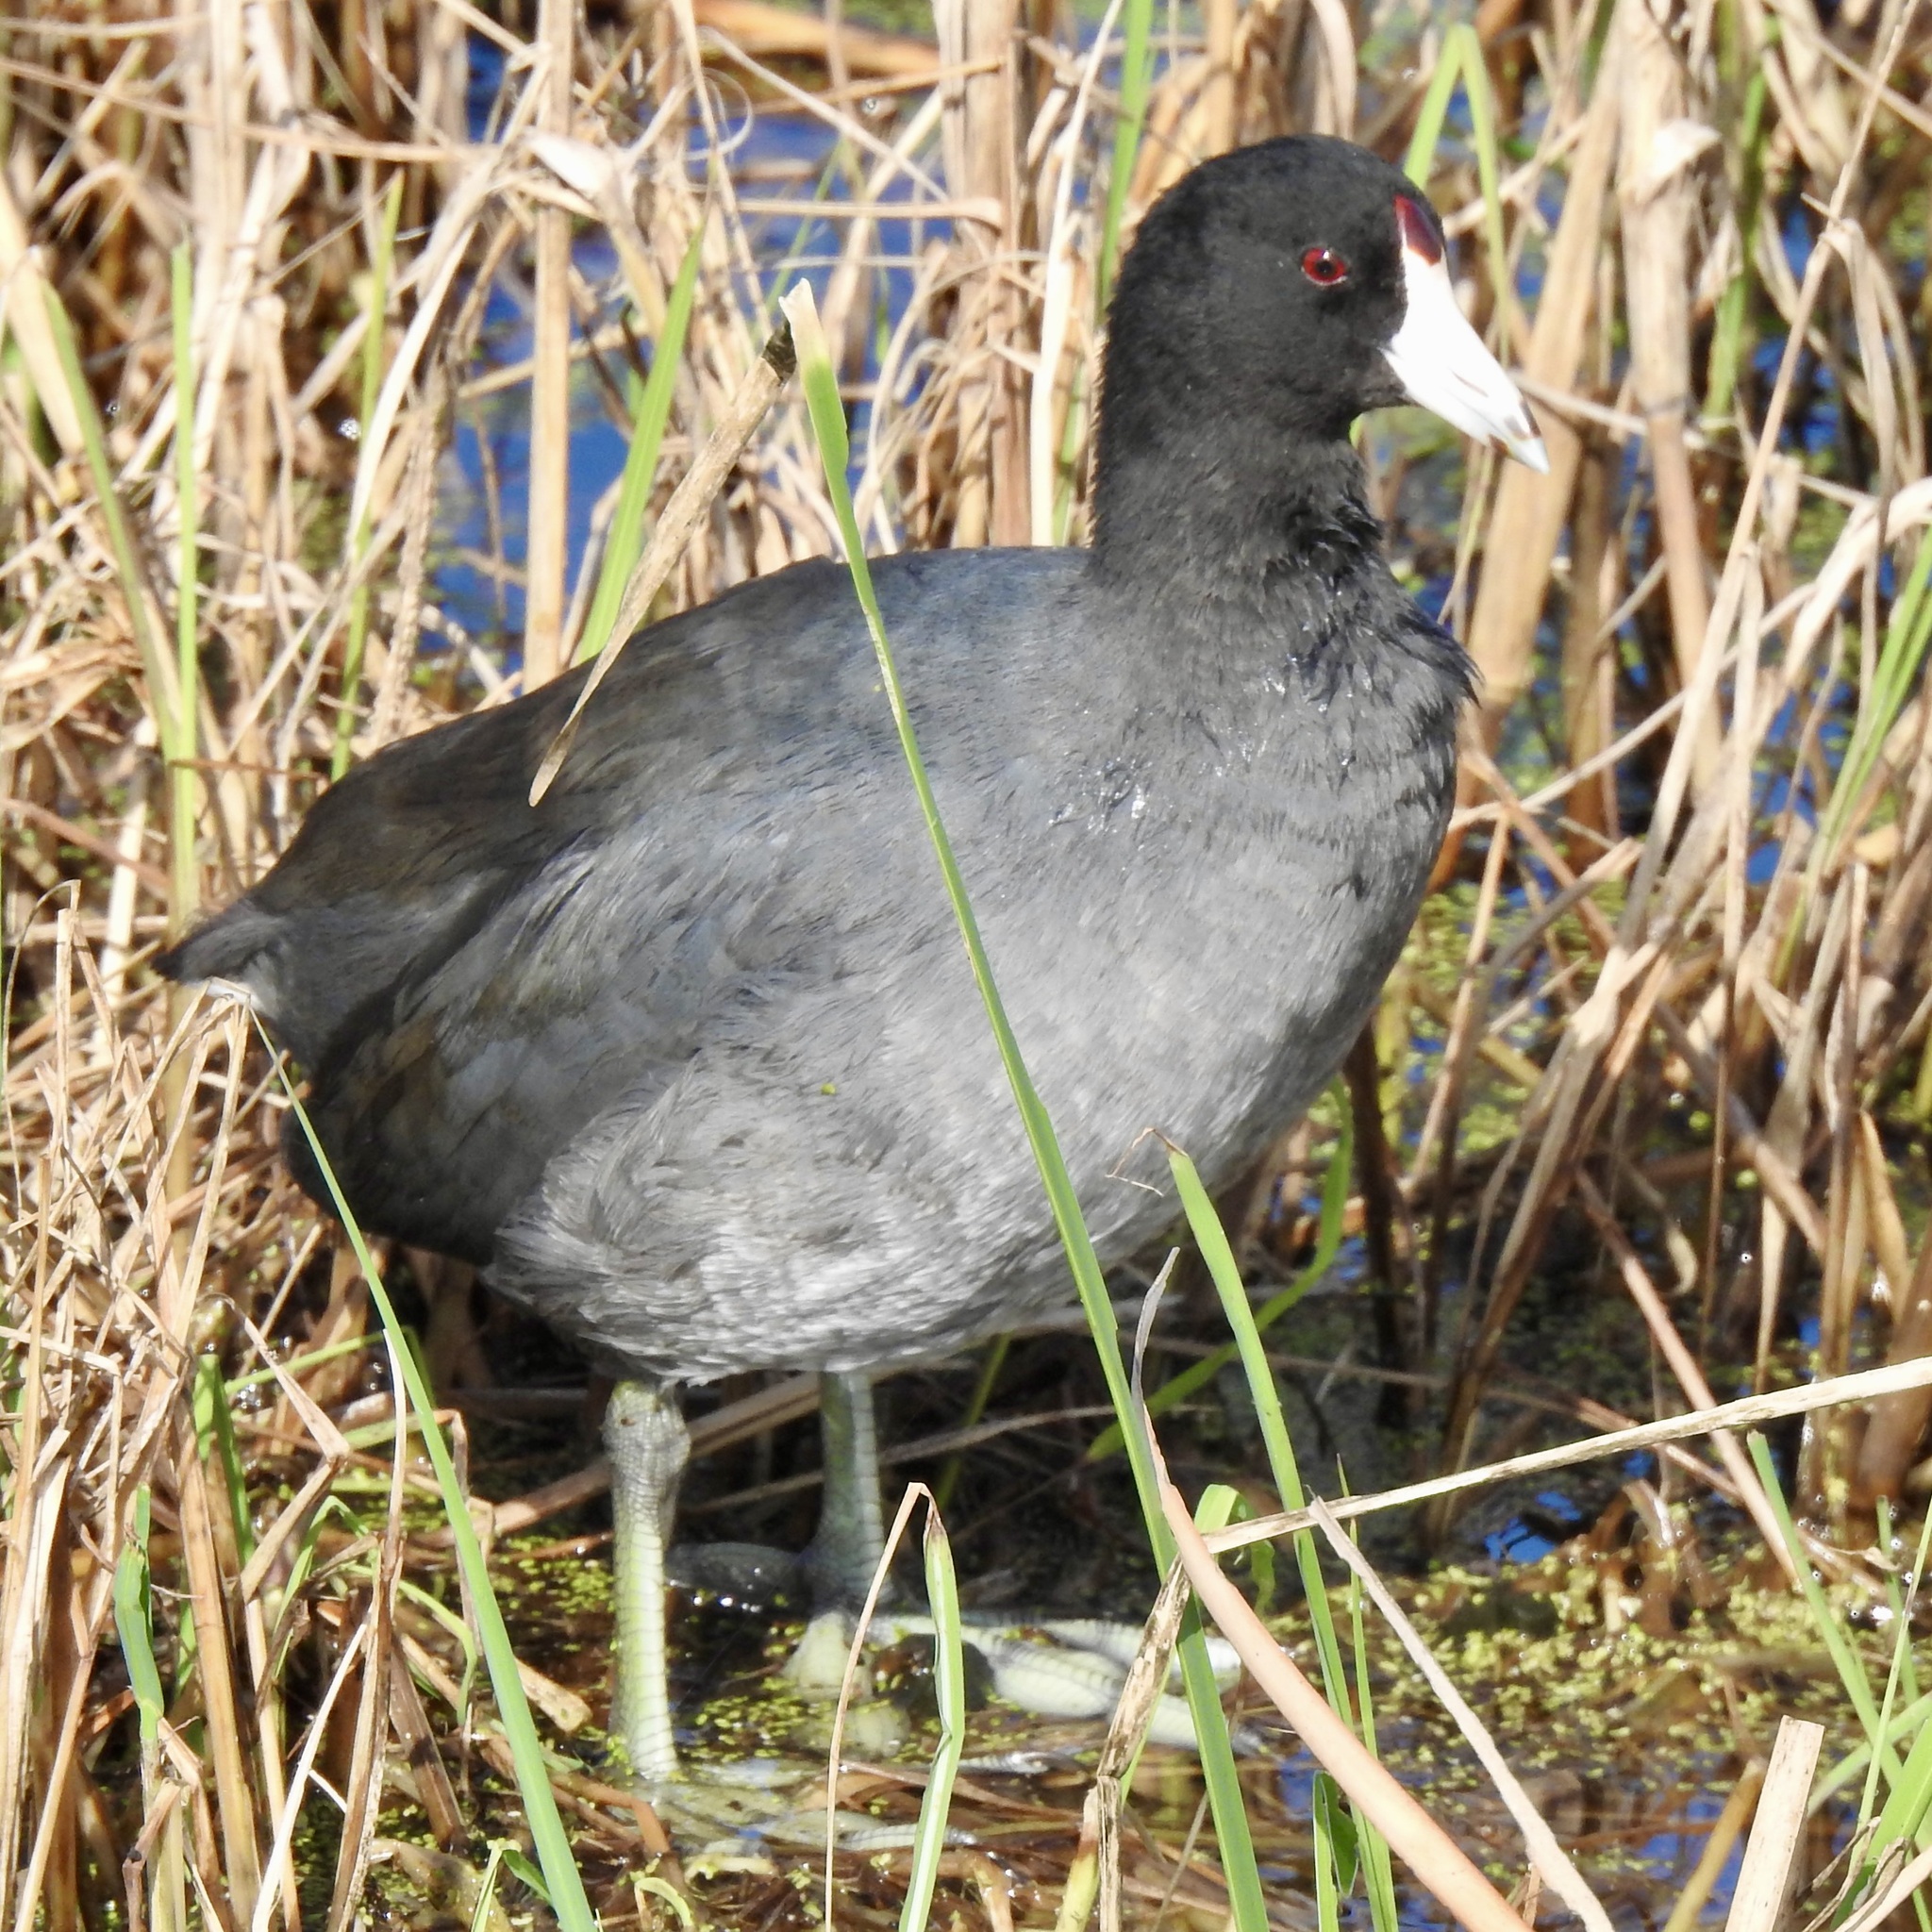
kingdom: Animalia
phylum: Chordata
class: Aves
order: Gruiformes
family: Rallidae
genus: Fulica
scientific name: Fulica americana
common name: American coot
